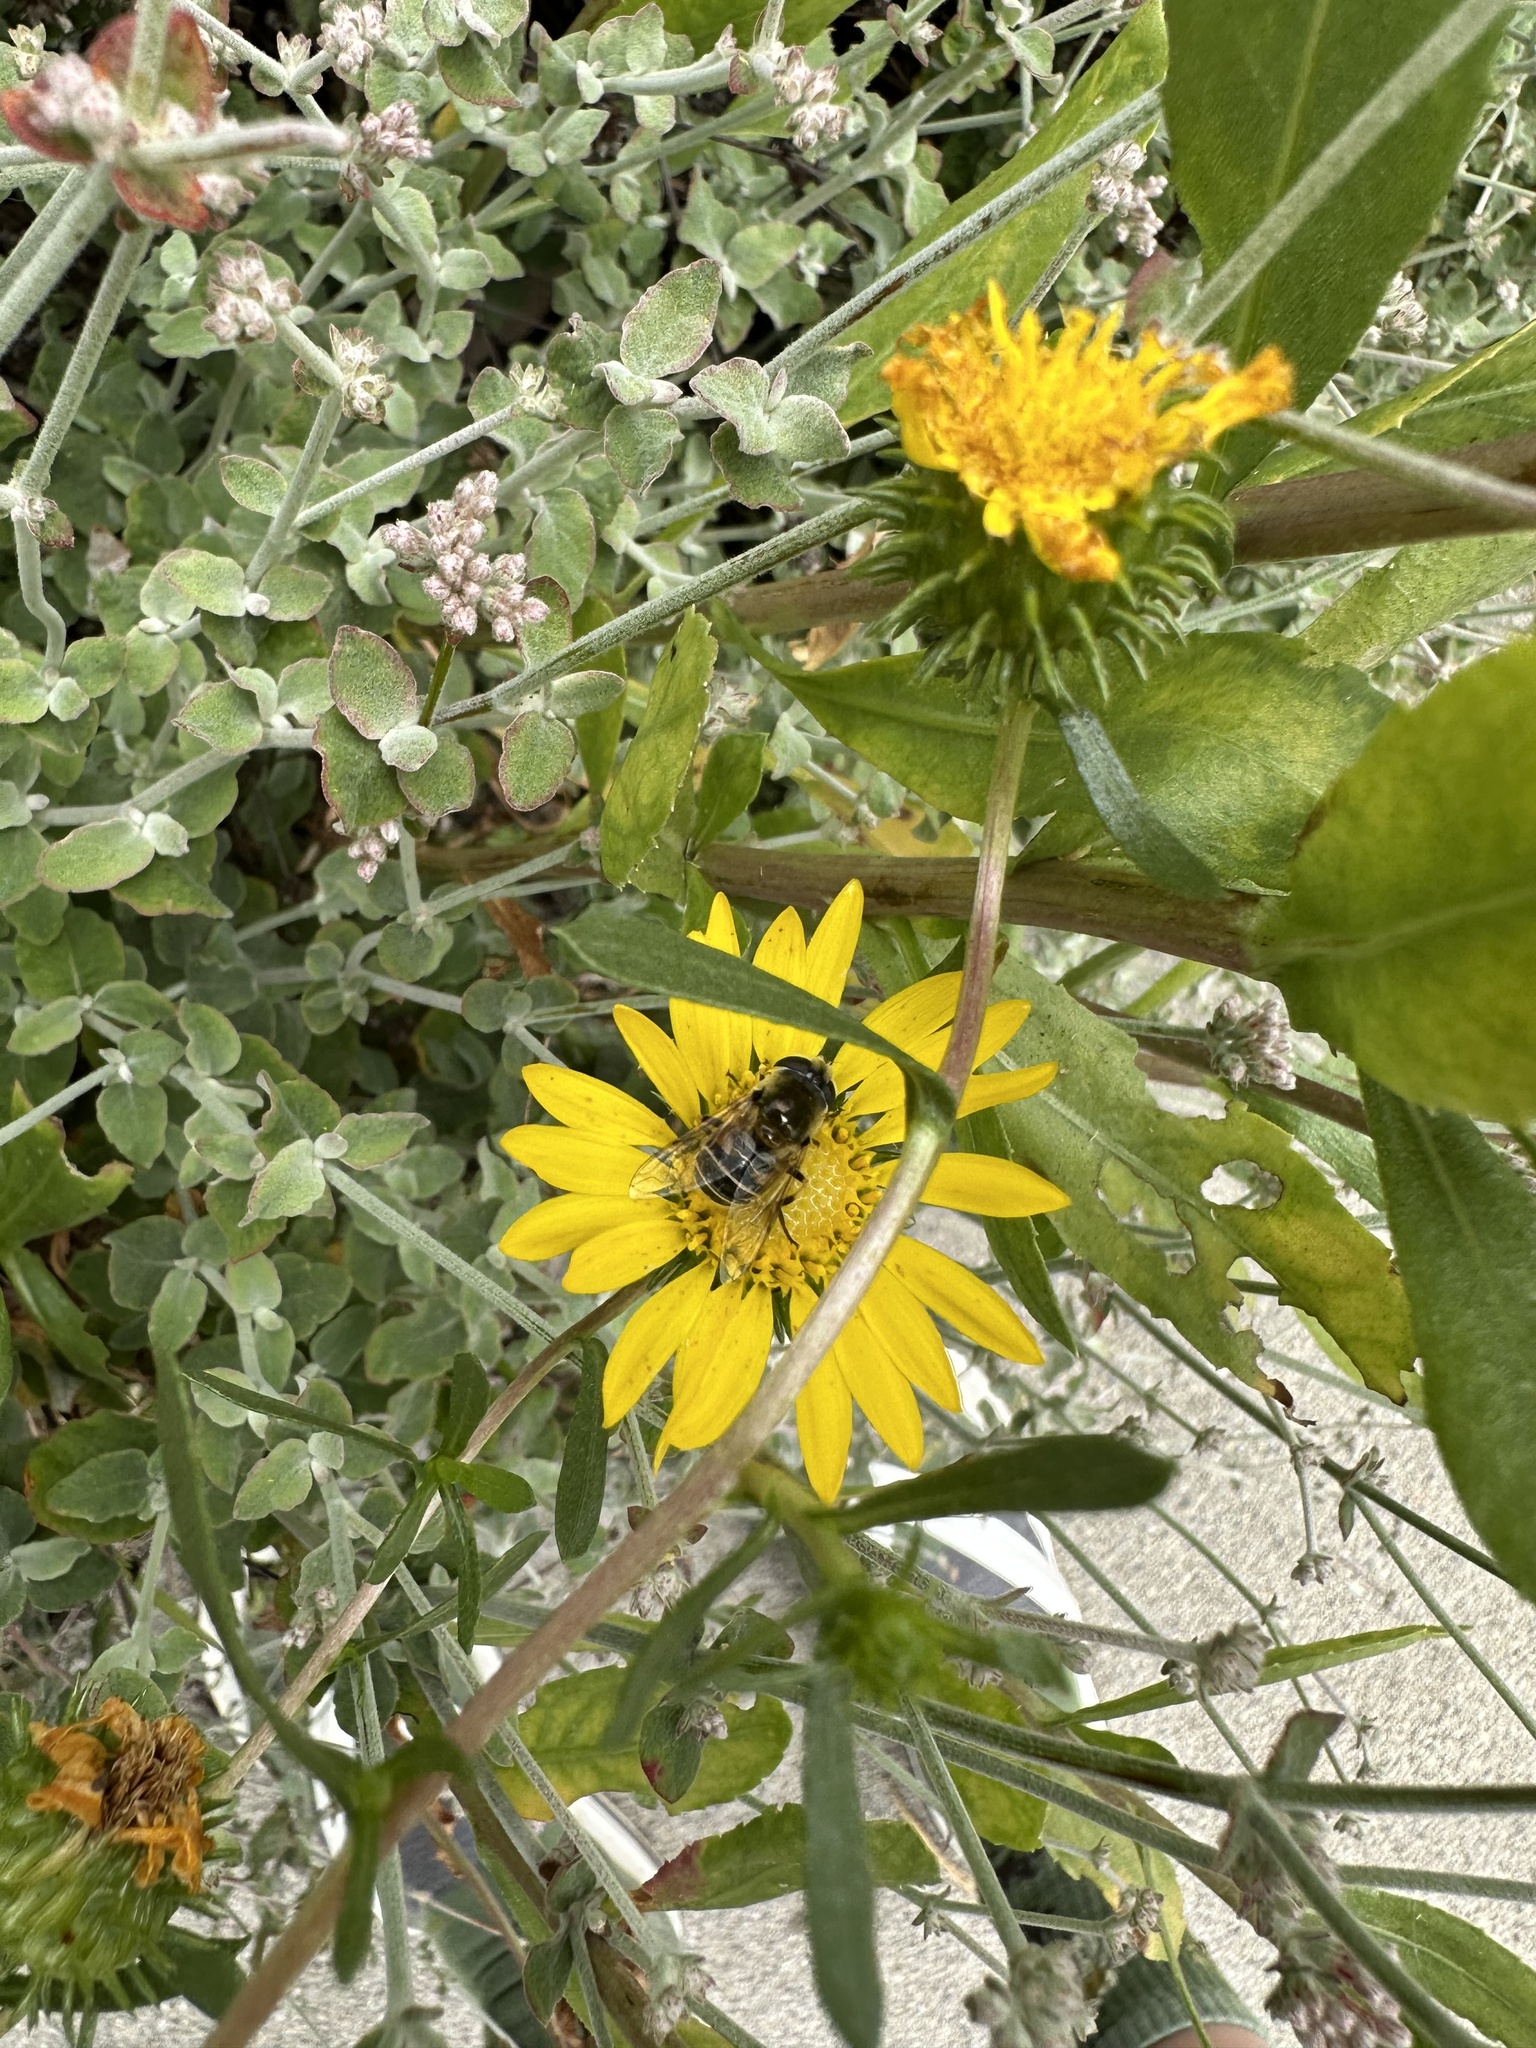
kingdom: Animalia
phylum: Arthropoda
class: Insecta
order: Diptera
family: Syrphidae
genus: Eristalis
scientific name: Eristalis stipator
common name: Yellow-shouldered drone fly
